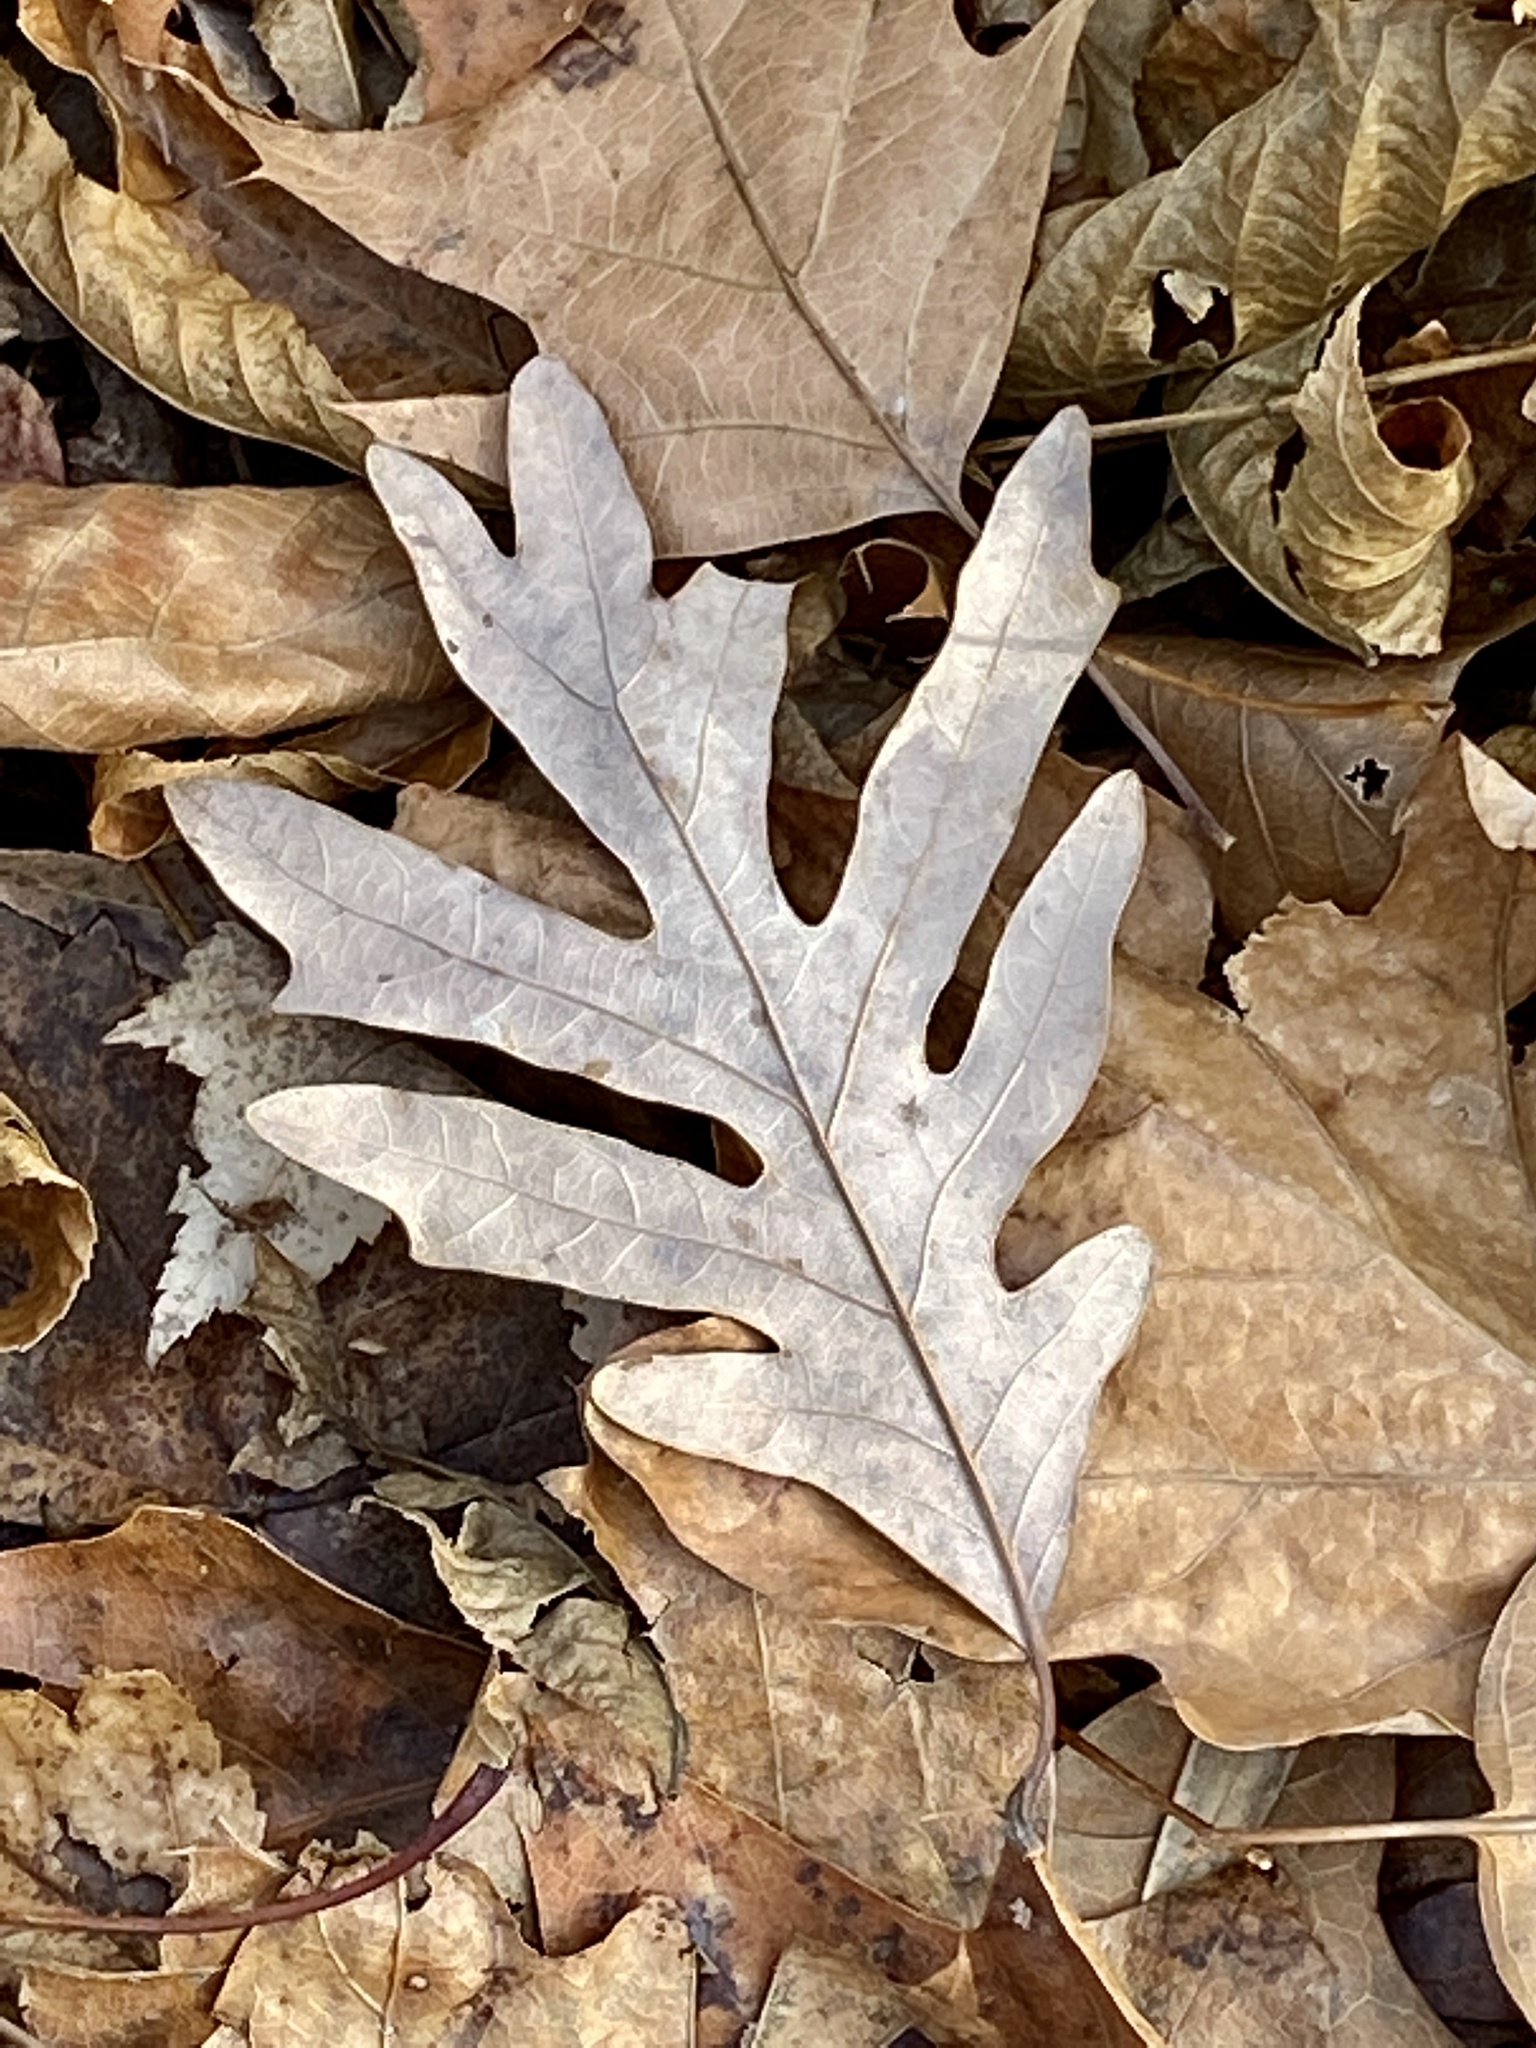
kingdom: Plantae
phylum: Tracheophyta
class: Magnoliopsida
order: Fagales
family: Fagaceae
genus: Quercus
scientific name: Quercus alba
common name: White oak
